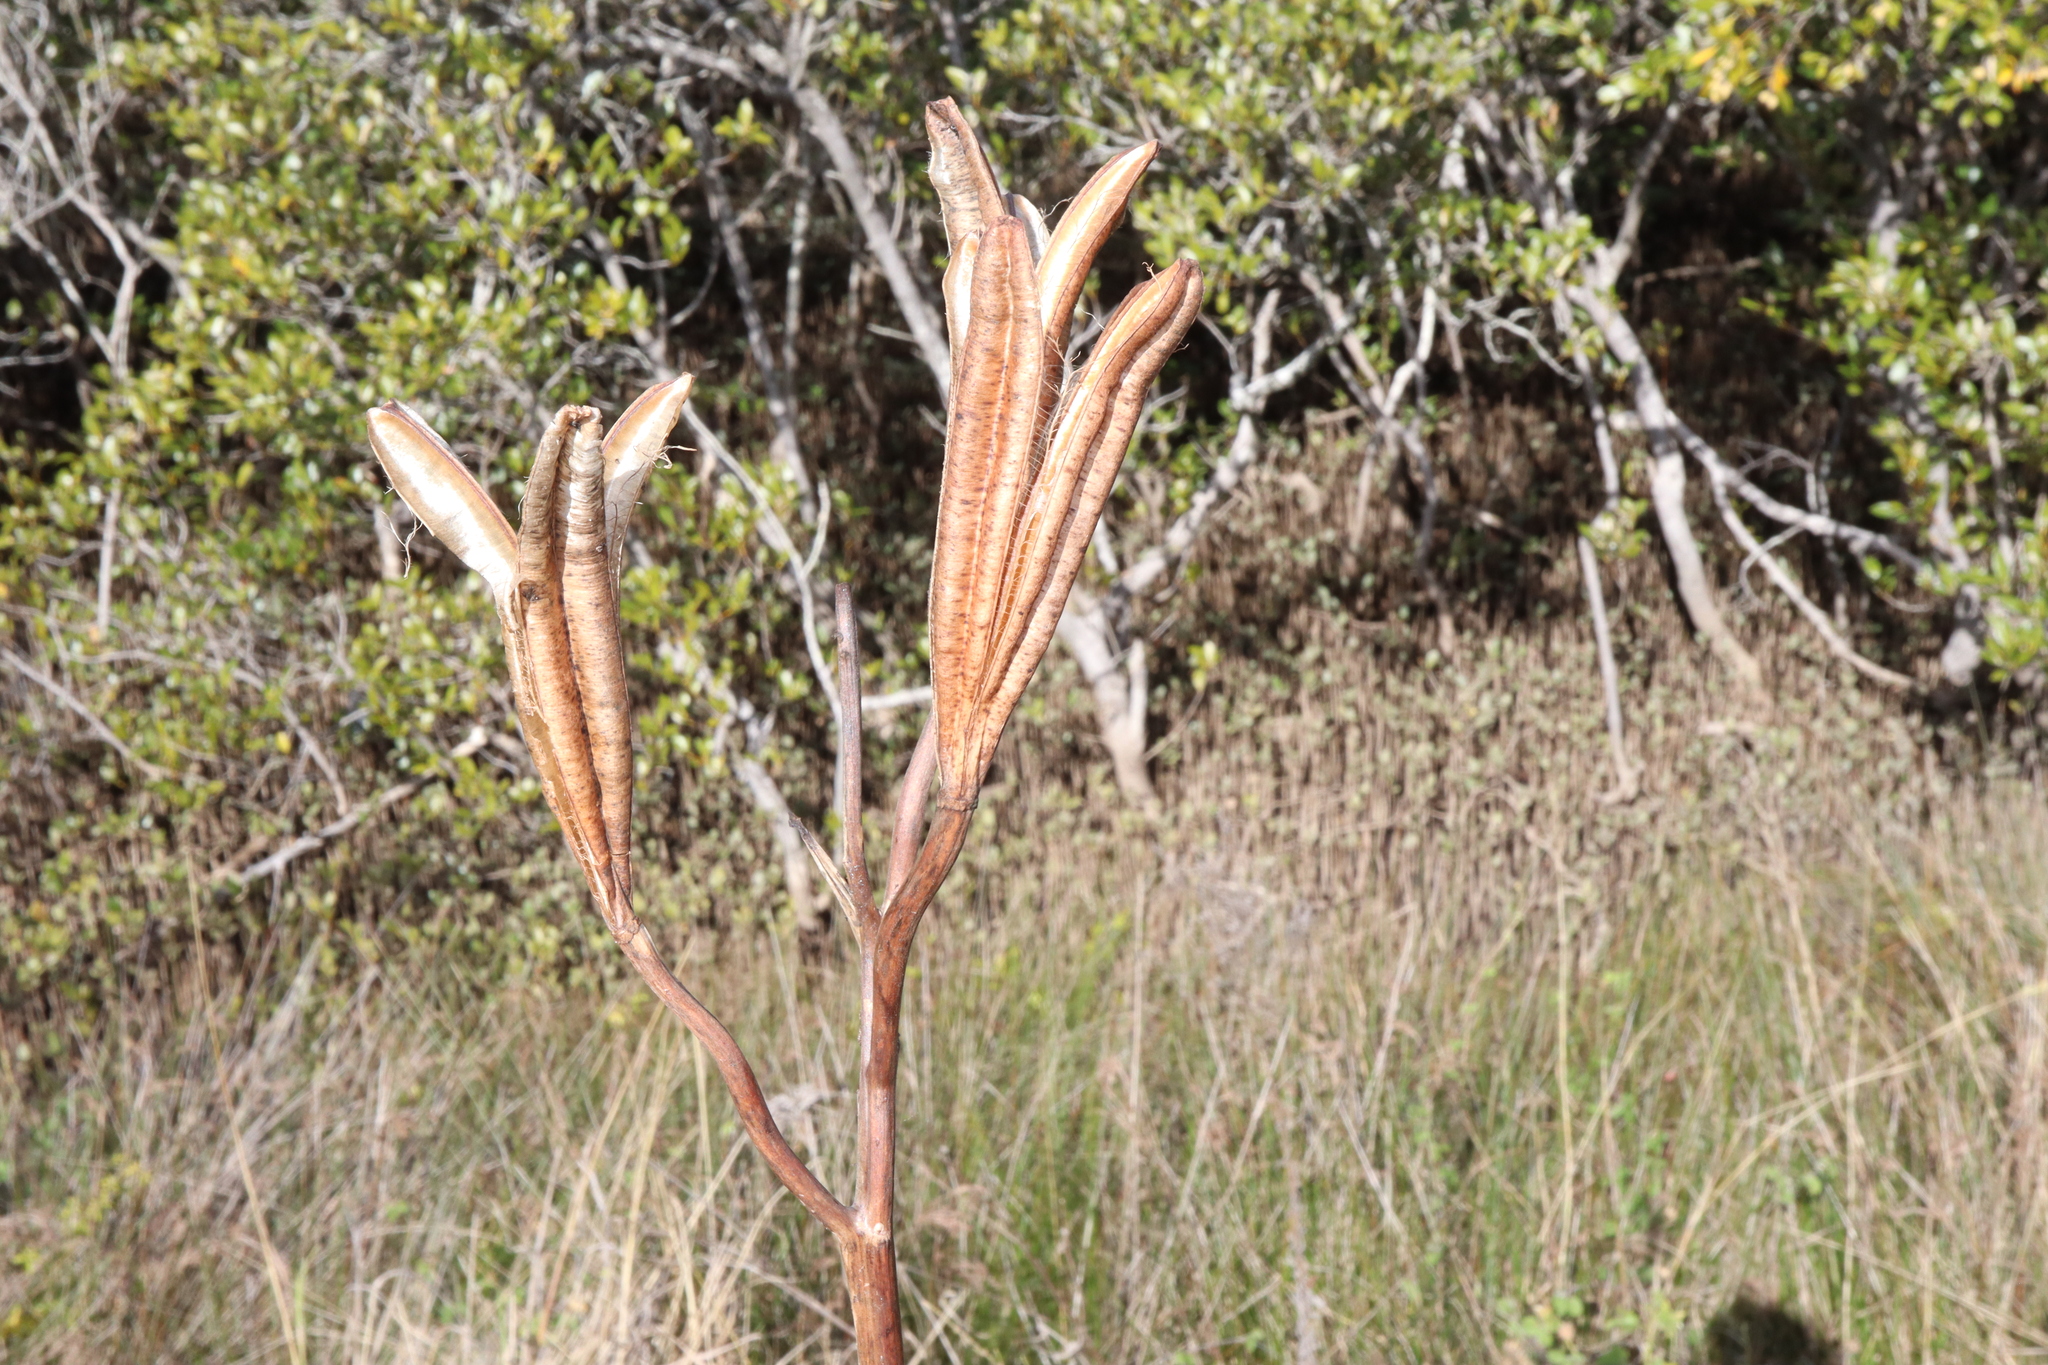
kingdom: Plantae
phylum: Tracheophyta
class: Liliopsida
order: Liliales
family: Liliaceae
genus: Lilium
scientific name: Lilium formosanum
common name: Formosa lily
